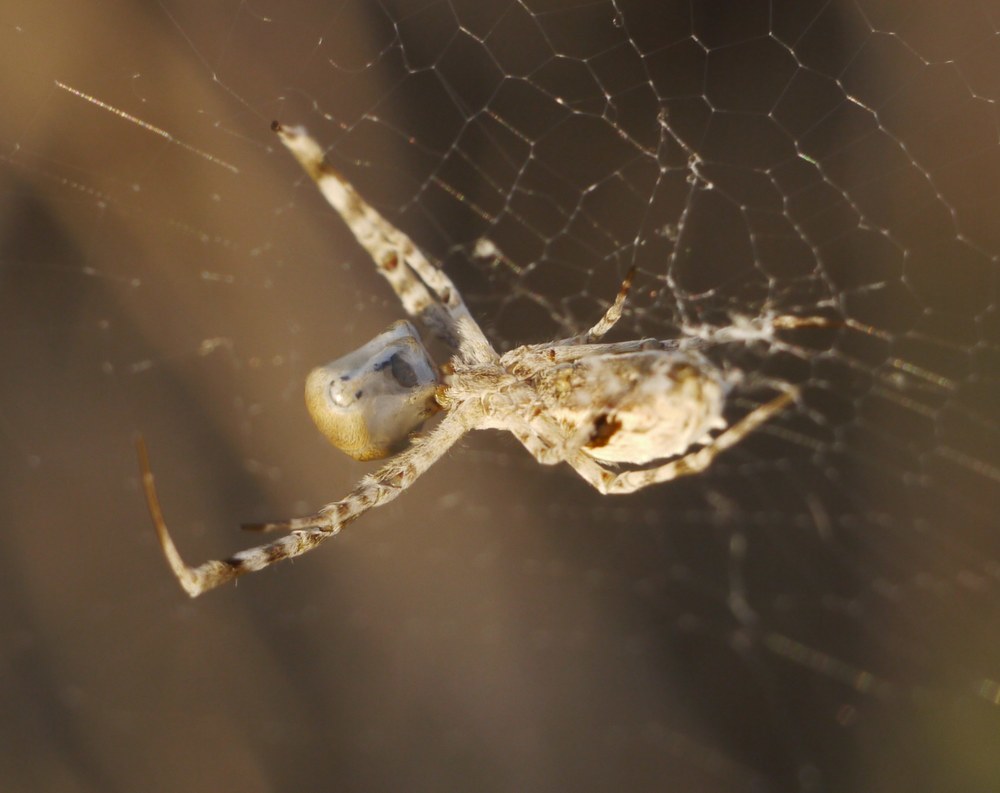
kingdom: Animalia
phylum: Arthropoda
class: Arachnida
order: Araneae
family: Uloboridae
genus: Uloborus
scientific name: Uloborus walckenaerius
